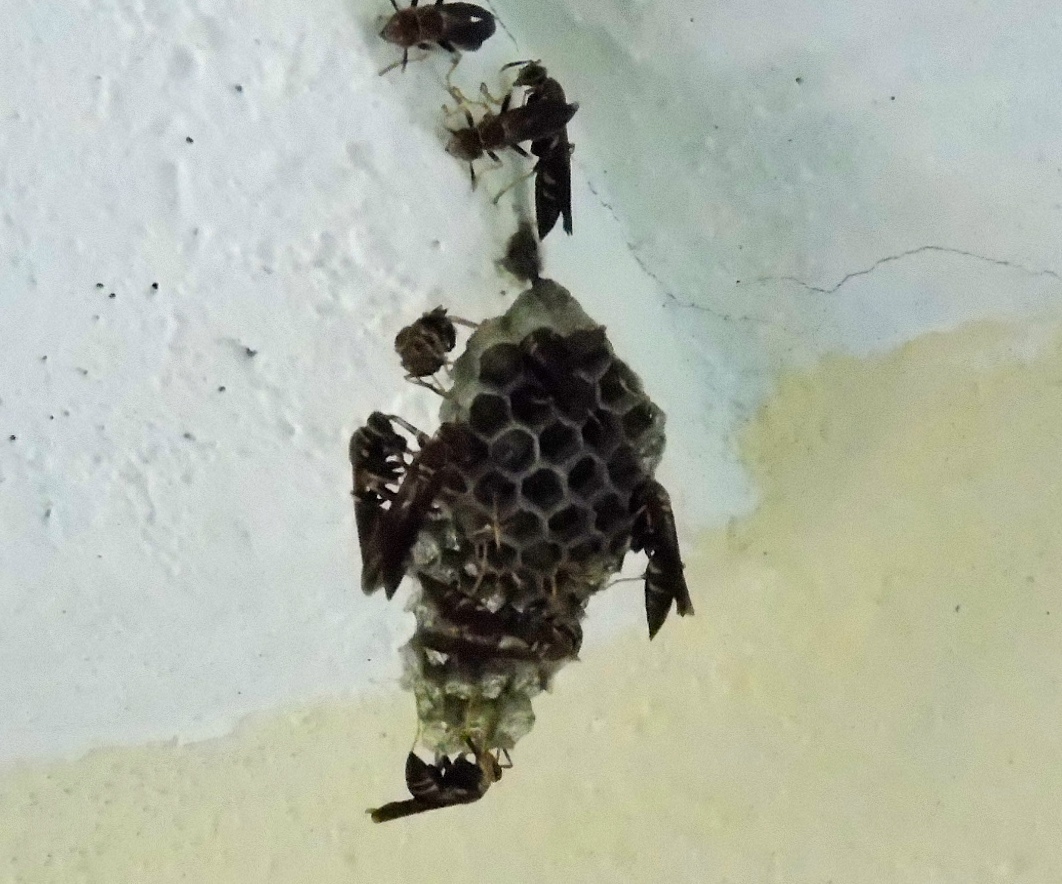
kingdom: Animalia
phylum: Arthropoda
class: Insecta
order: Hymenoptera
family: Eumenidae
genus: Polistes
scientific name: Polistes instabilis
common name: Unstable paper wasp
